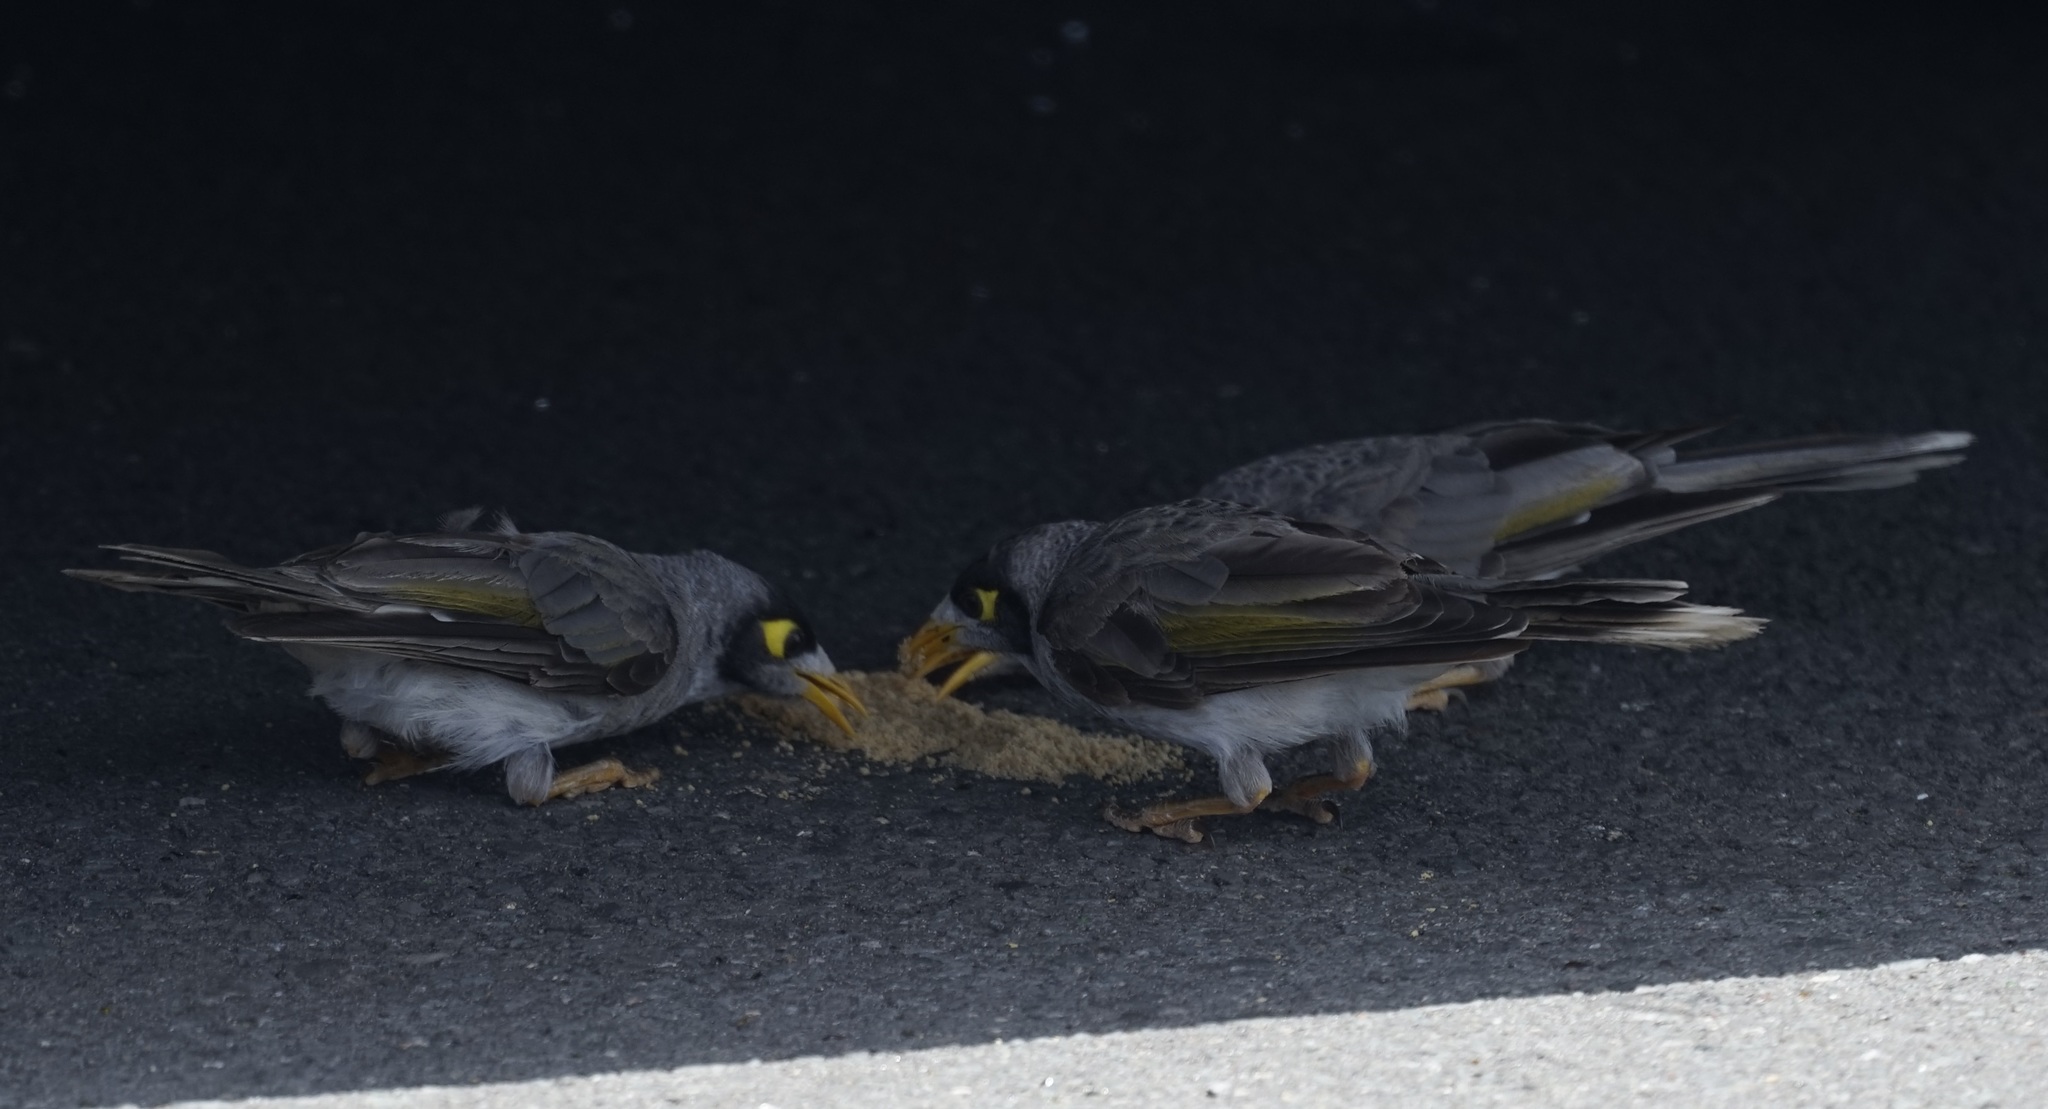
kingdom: Animalia
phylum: Chordata
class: Aves
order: Passeriformes
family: Meliphagidae
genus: Manorina
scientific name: Manorina melanocephala
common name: Noisy miner
